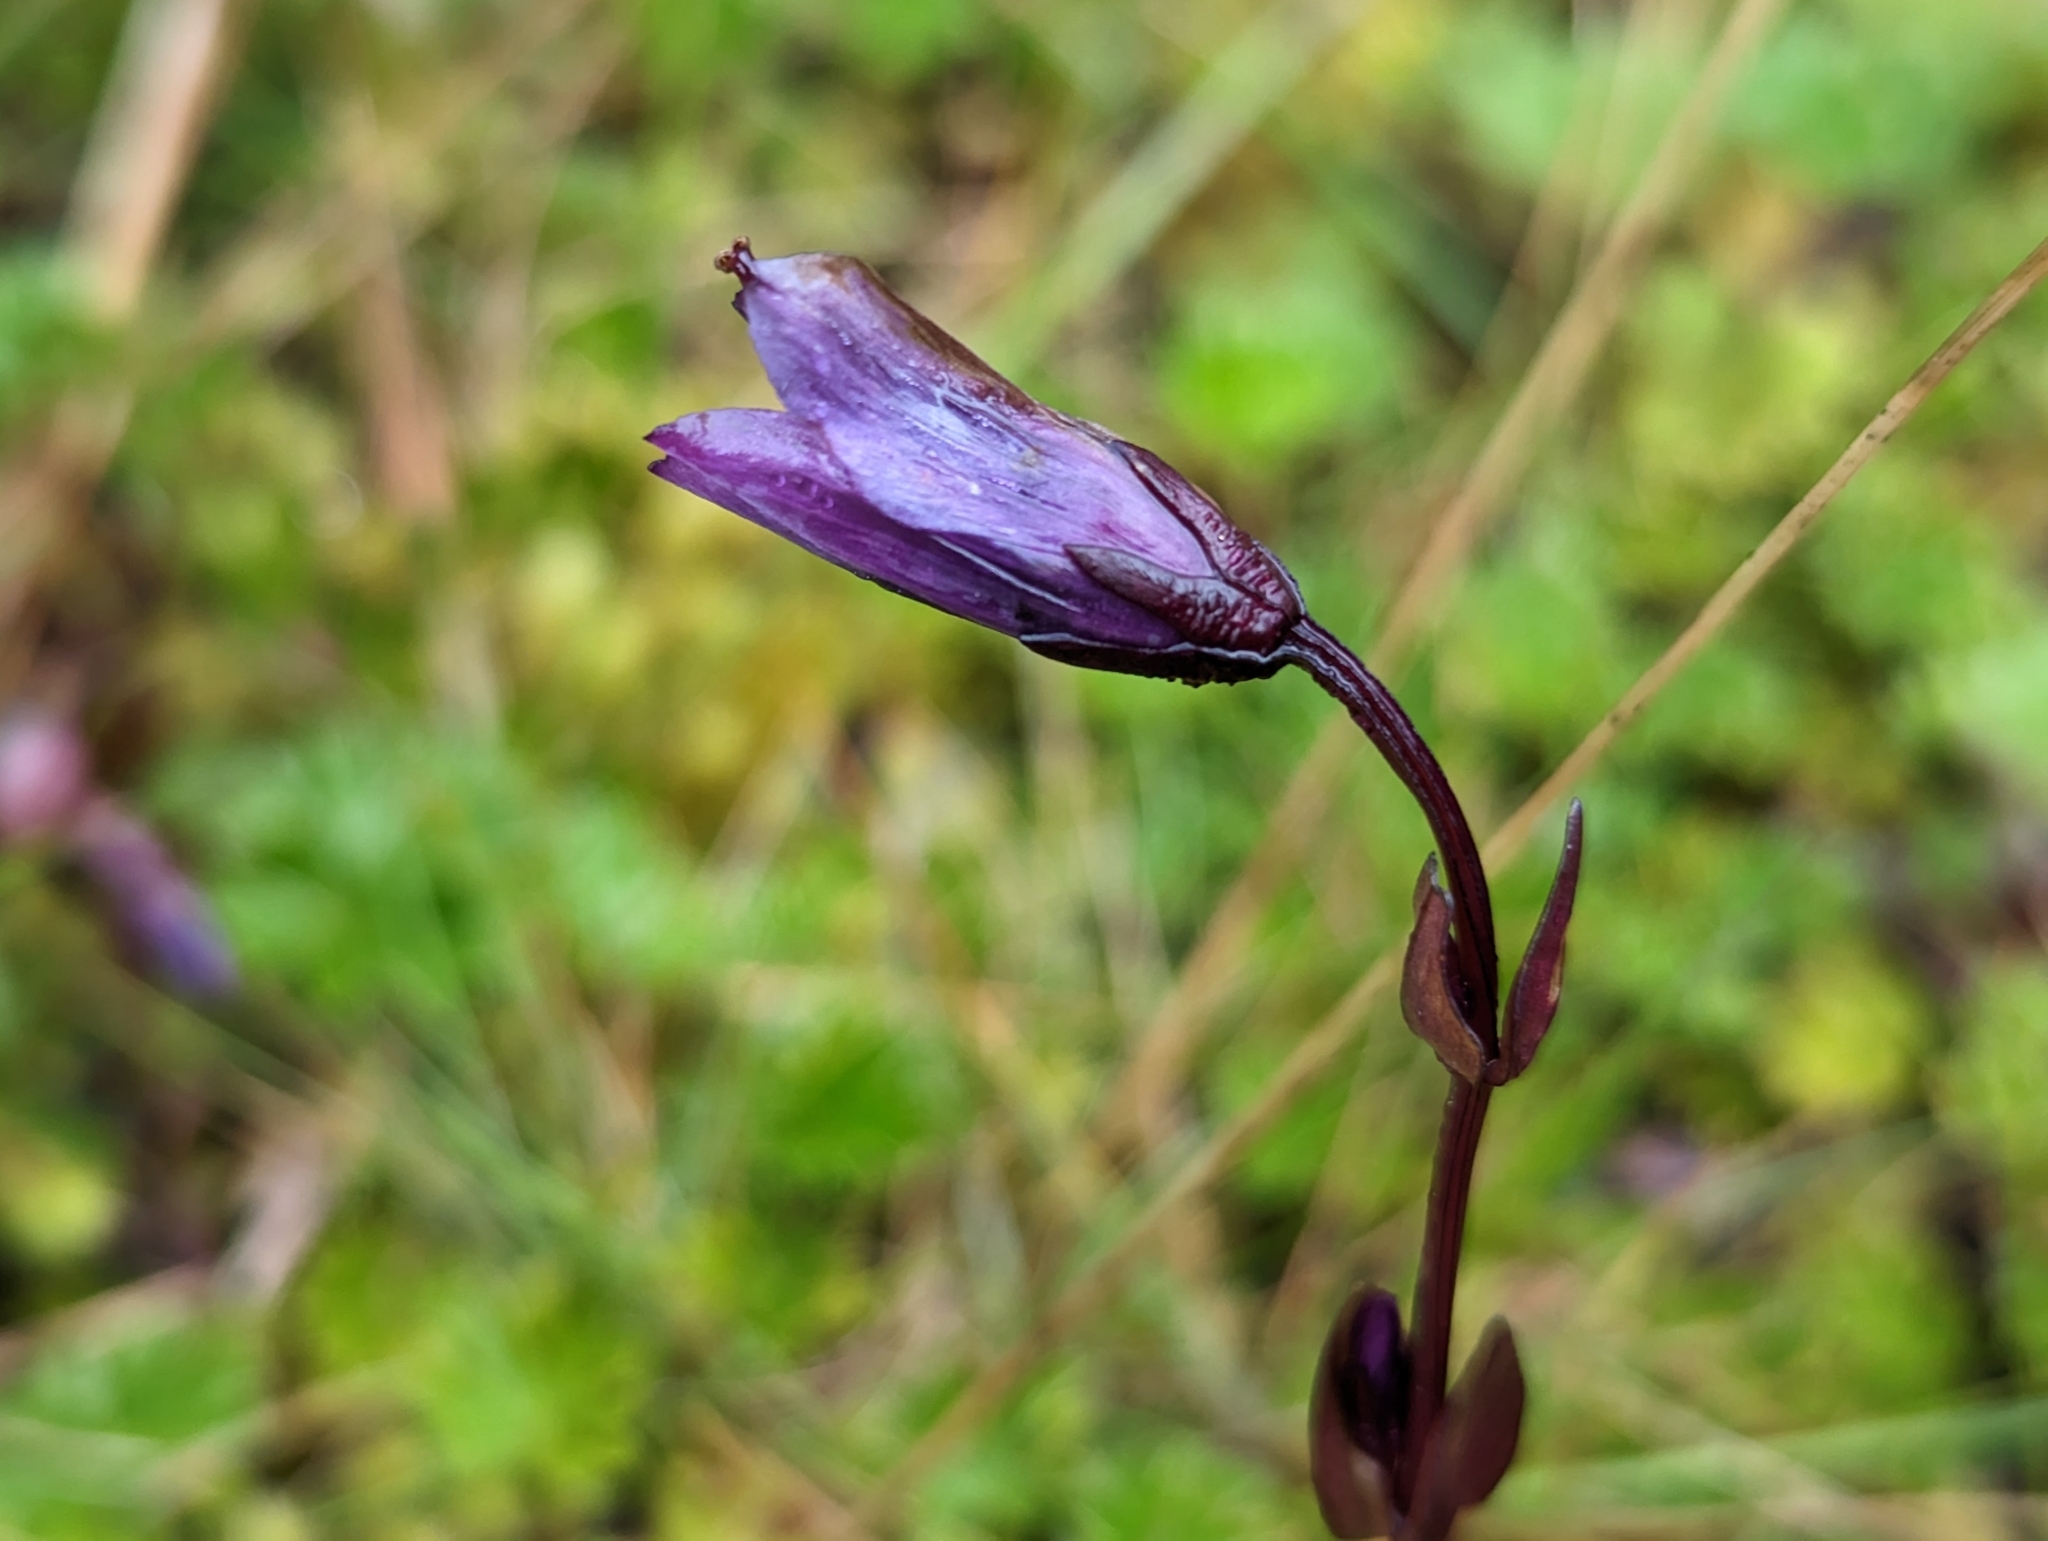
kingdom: Plantae
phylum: Tracheophyta
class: Magnoliopsida
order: Gentianales
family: Gentianaceae
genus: Gentianella
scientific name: Gentianella rapunculoides
